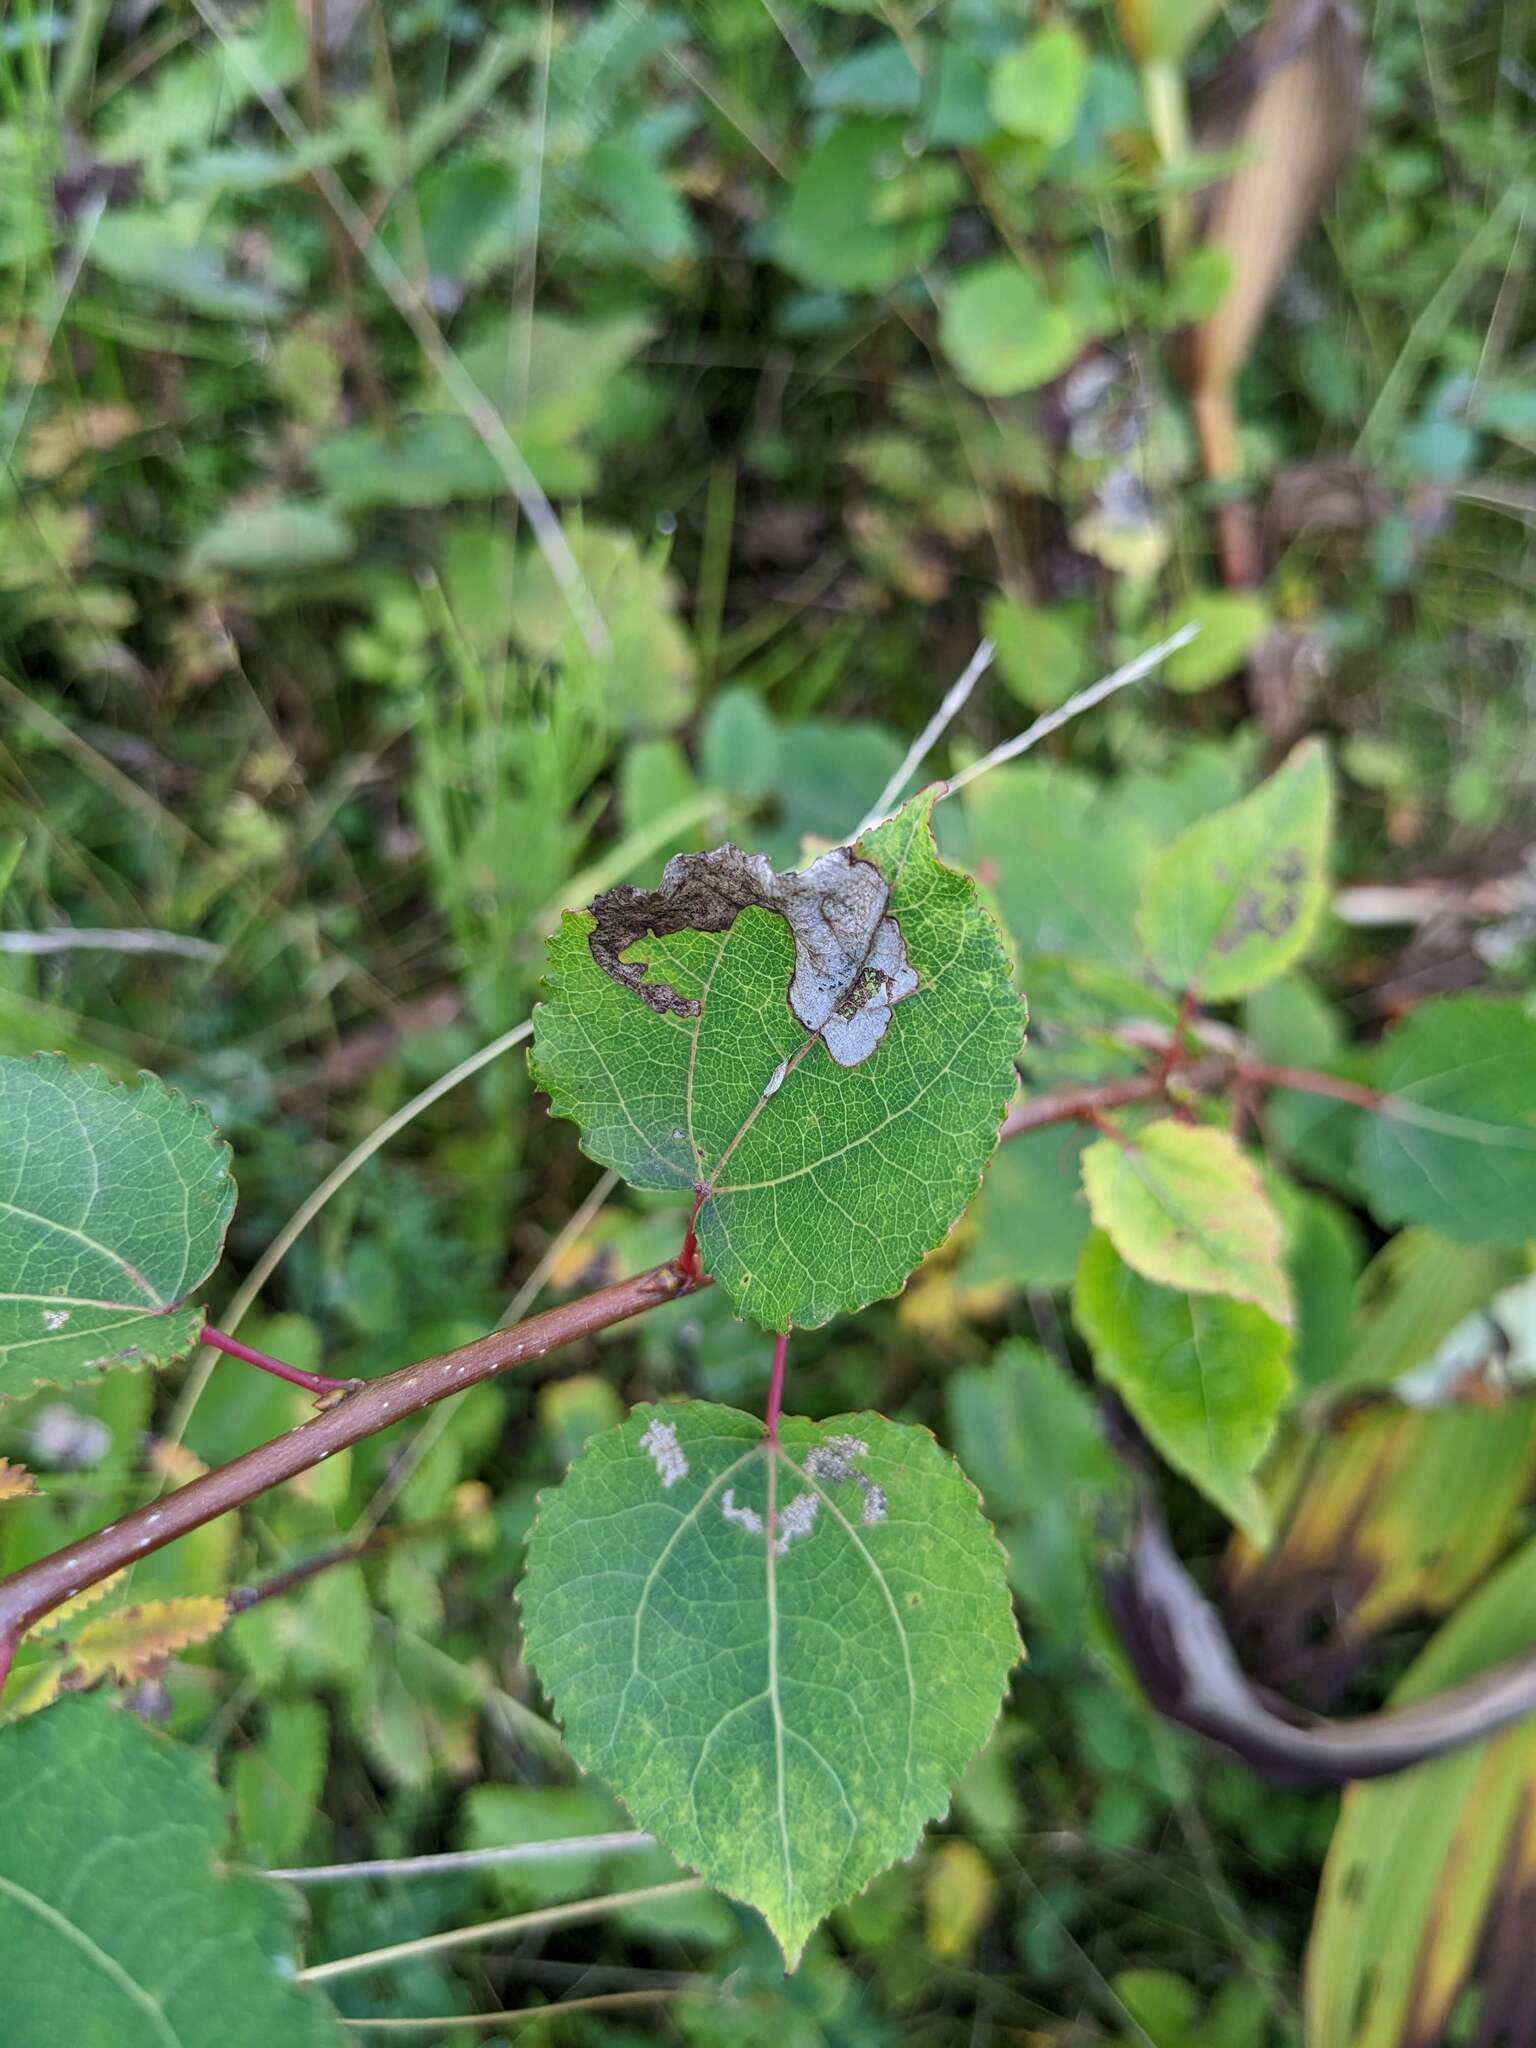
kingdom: Plantae
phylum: Tracheophyta
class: Magnoliopsida
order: Malpighiales
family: Salicaceae
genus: Populus
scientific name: Populus tremula
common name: European aspen
